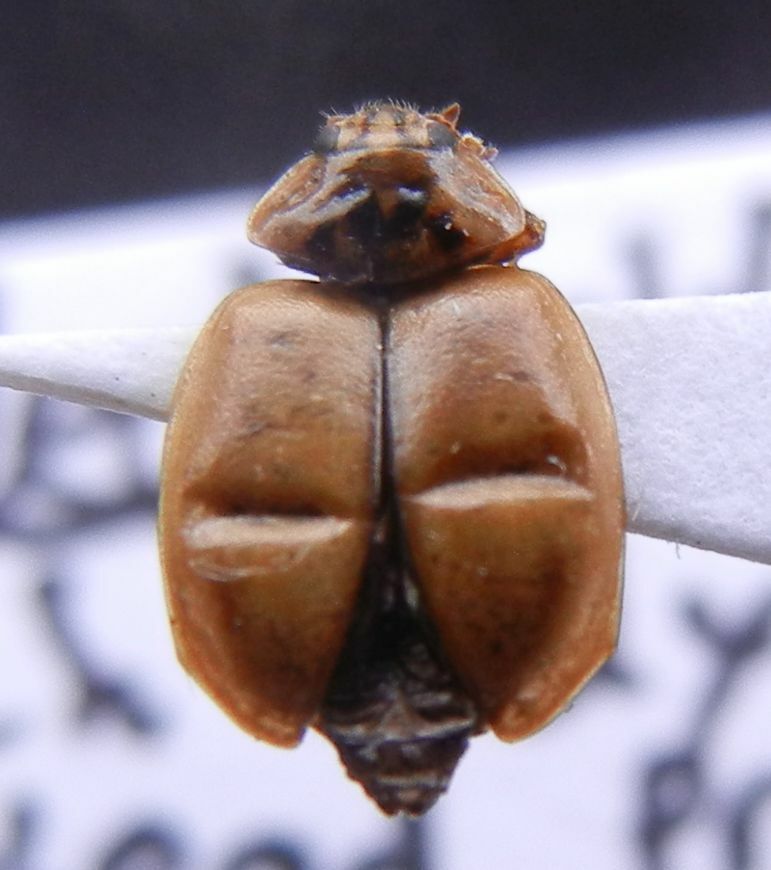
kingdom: Animalia
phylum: Arthropoda
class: Insecta
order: Coleoptera
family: Coccinellidae
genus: Aphidecta
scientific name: Aphidecta obliterata
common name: Larch ladybird
